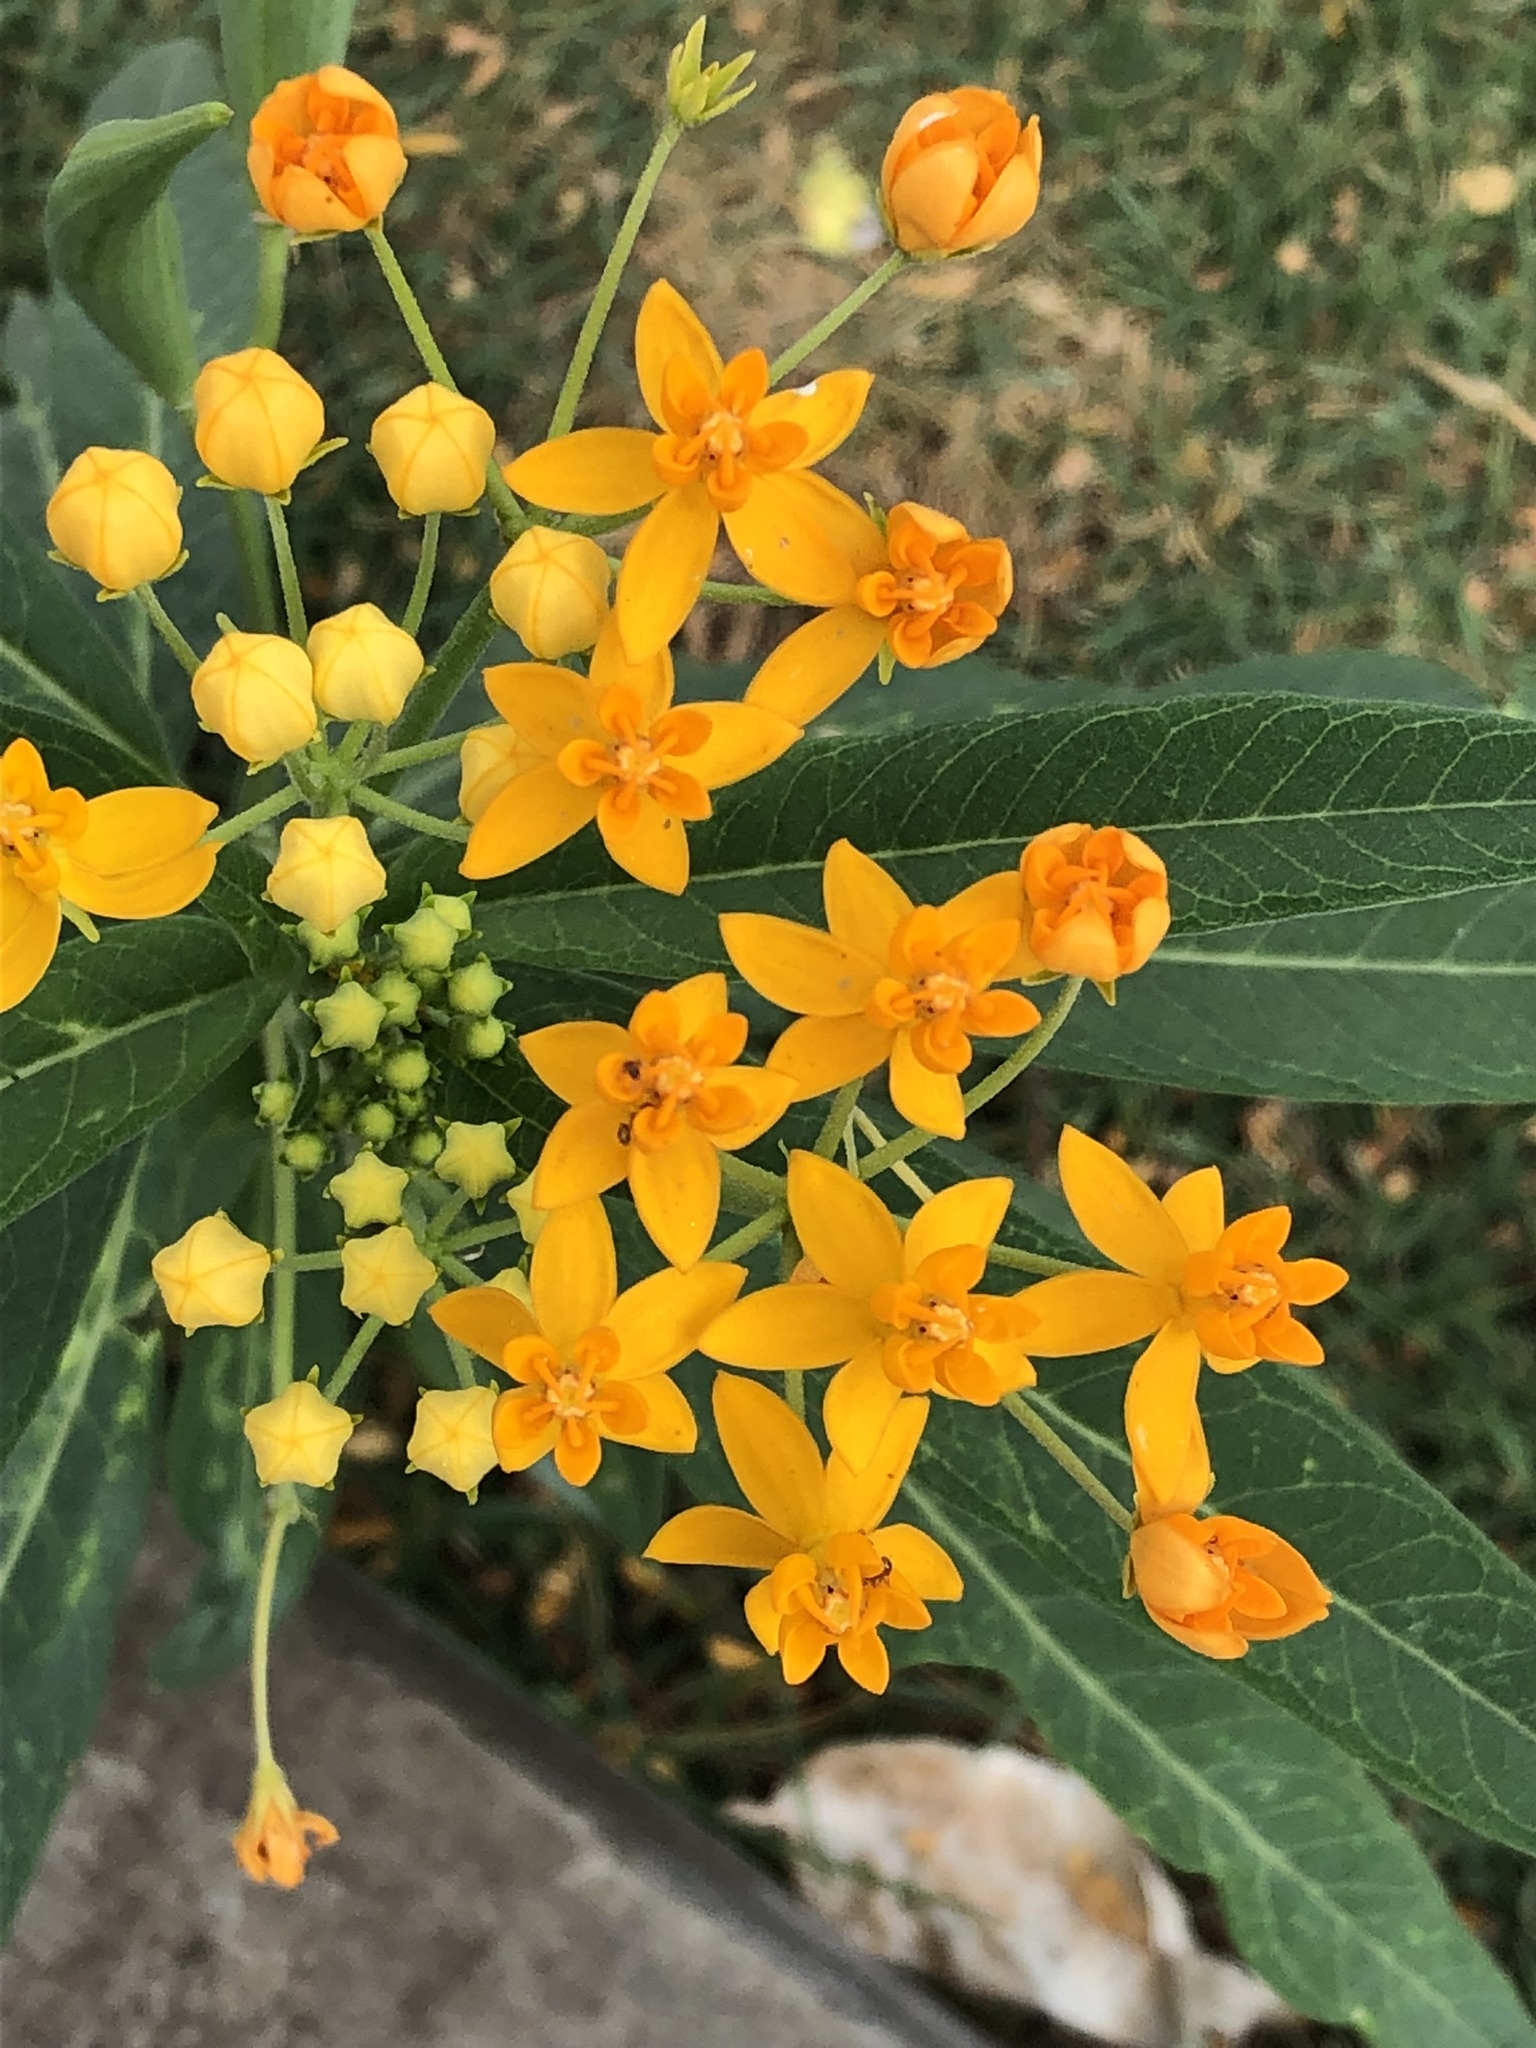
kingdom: Plantae
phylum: Tracheophyta
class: Magnoliopsida
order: Gentianales
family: Apocynaceae
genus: Asclepias
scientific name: Asclepias curassavica
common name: Bloodflower
